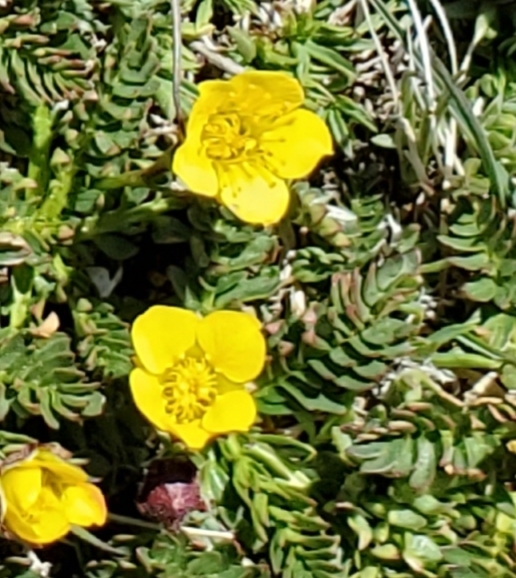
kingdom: Plantae
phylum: Tracheophyta
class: Magnoliopsida
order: Rosales
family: Rosaceae
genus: Geum
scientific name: Geum rossii
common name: Alpine avens
